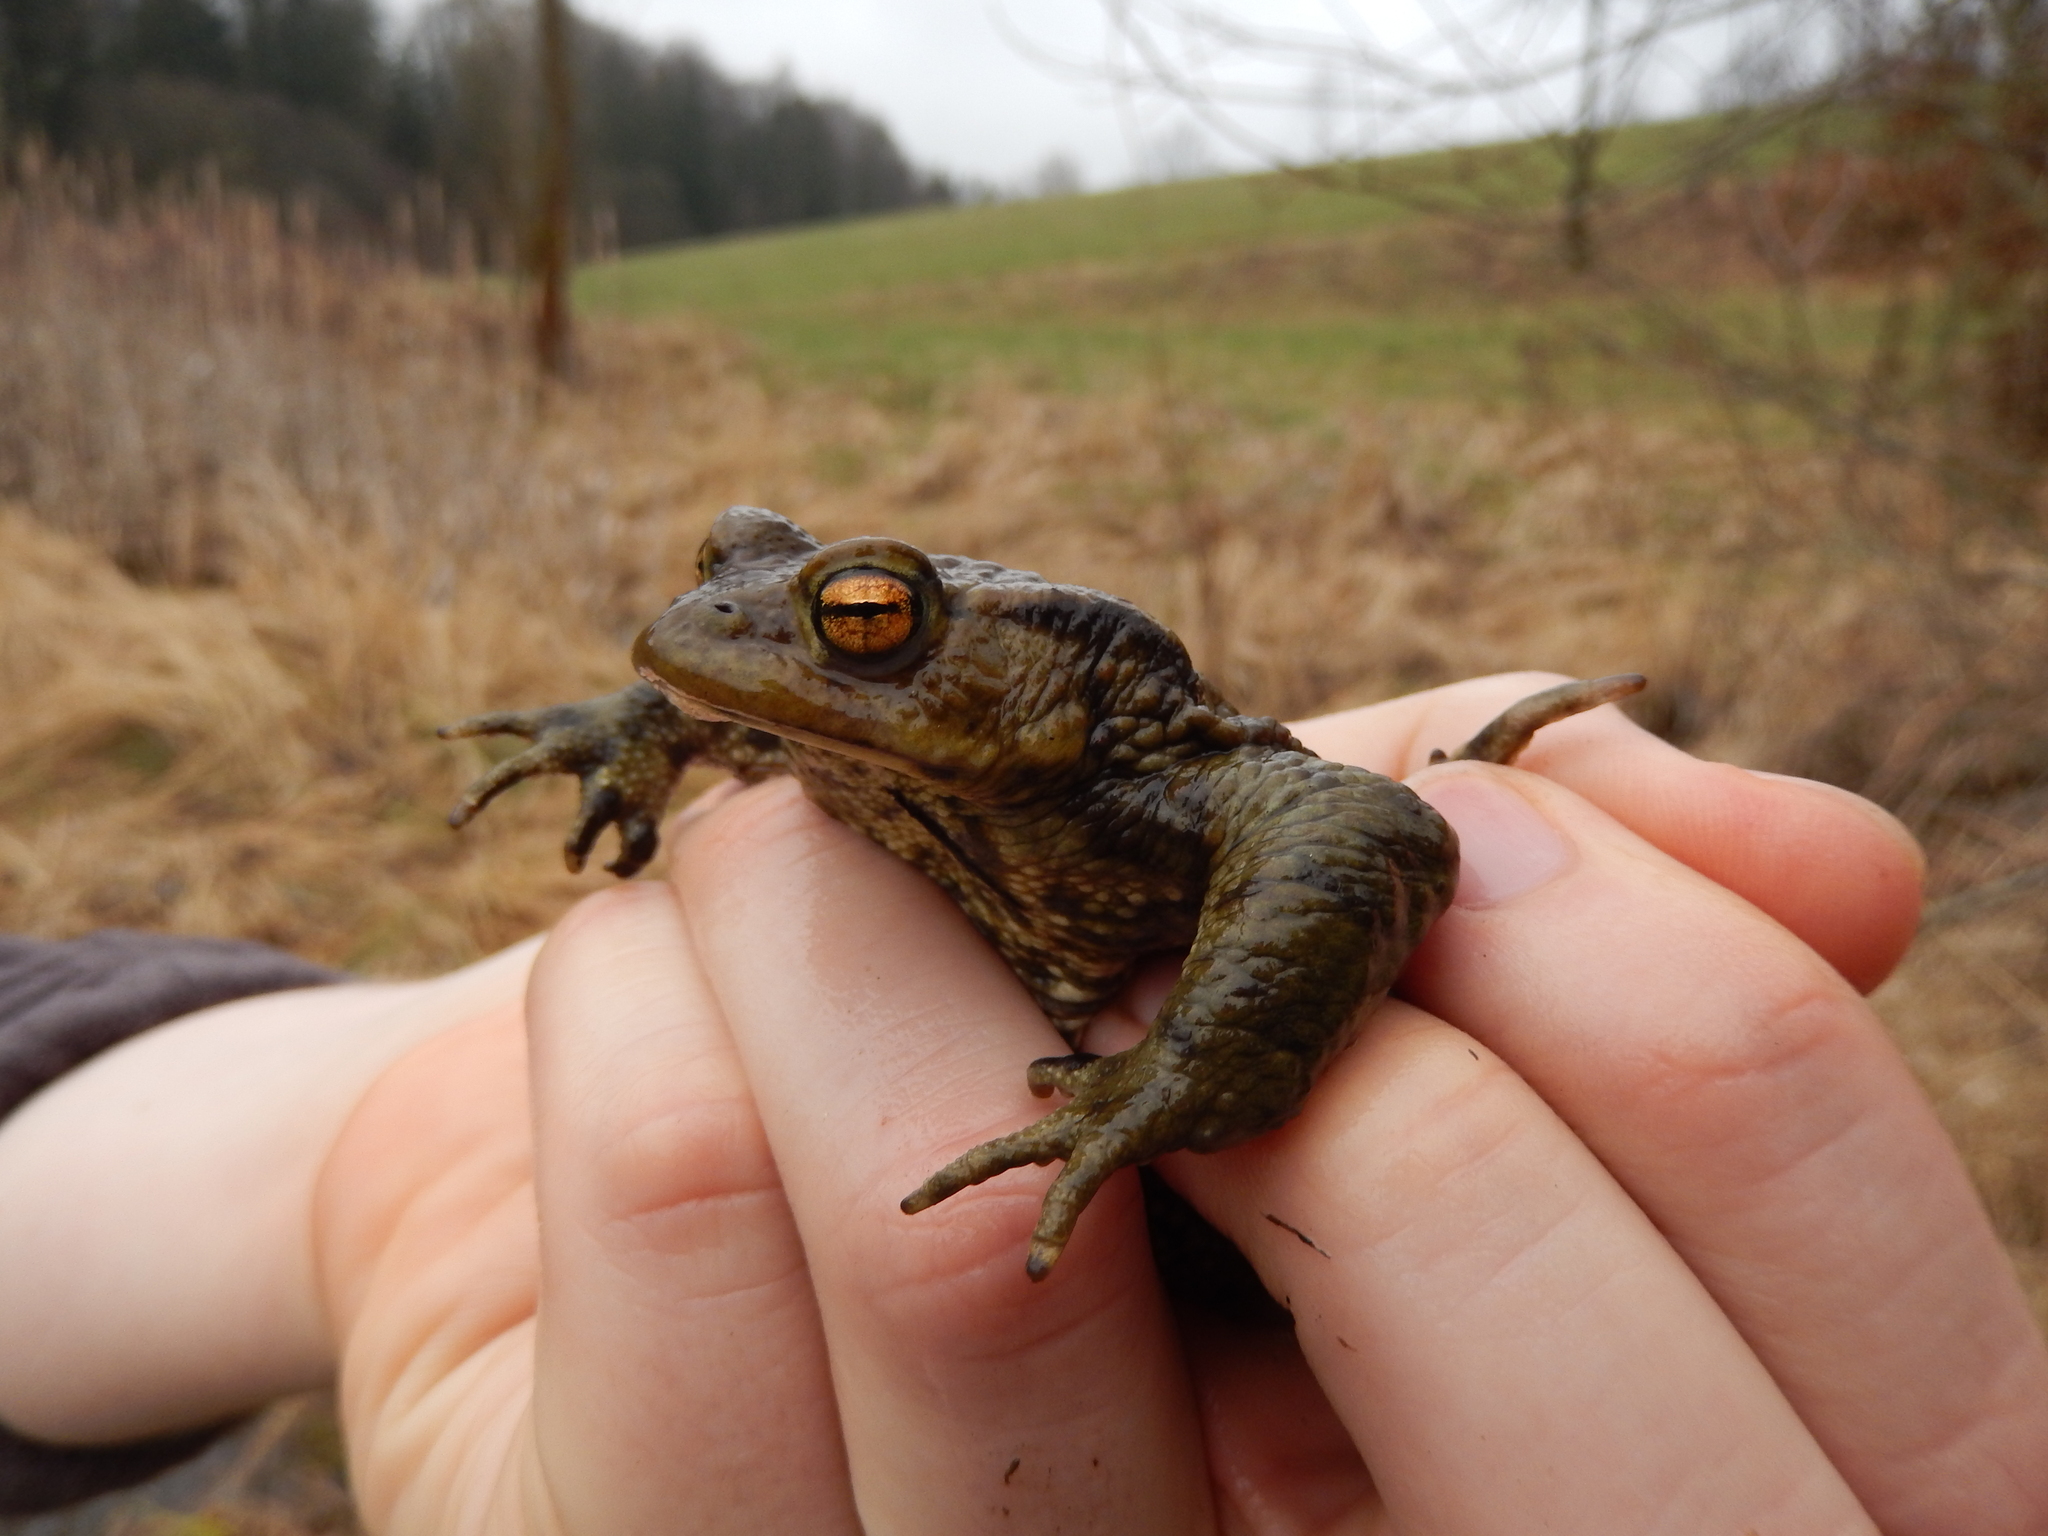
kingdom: Animalia
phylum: Chordata
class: Amphibia
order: Anura
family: Bufonidae
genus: Bufo
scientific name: Bufo bufo
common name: Common toad
